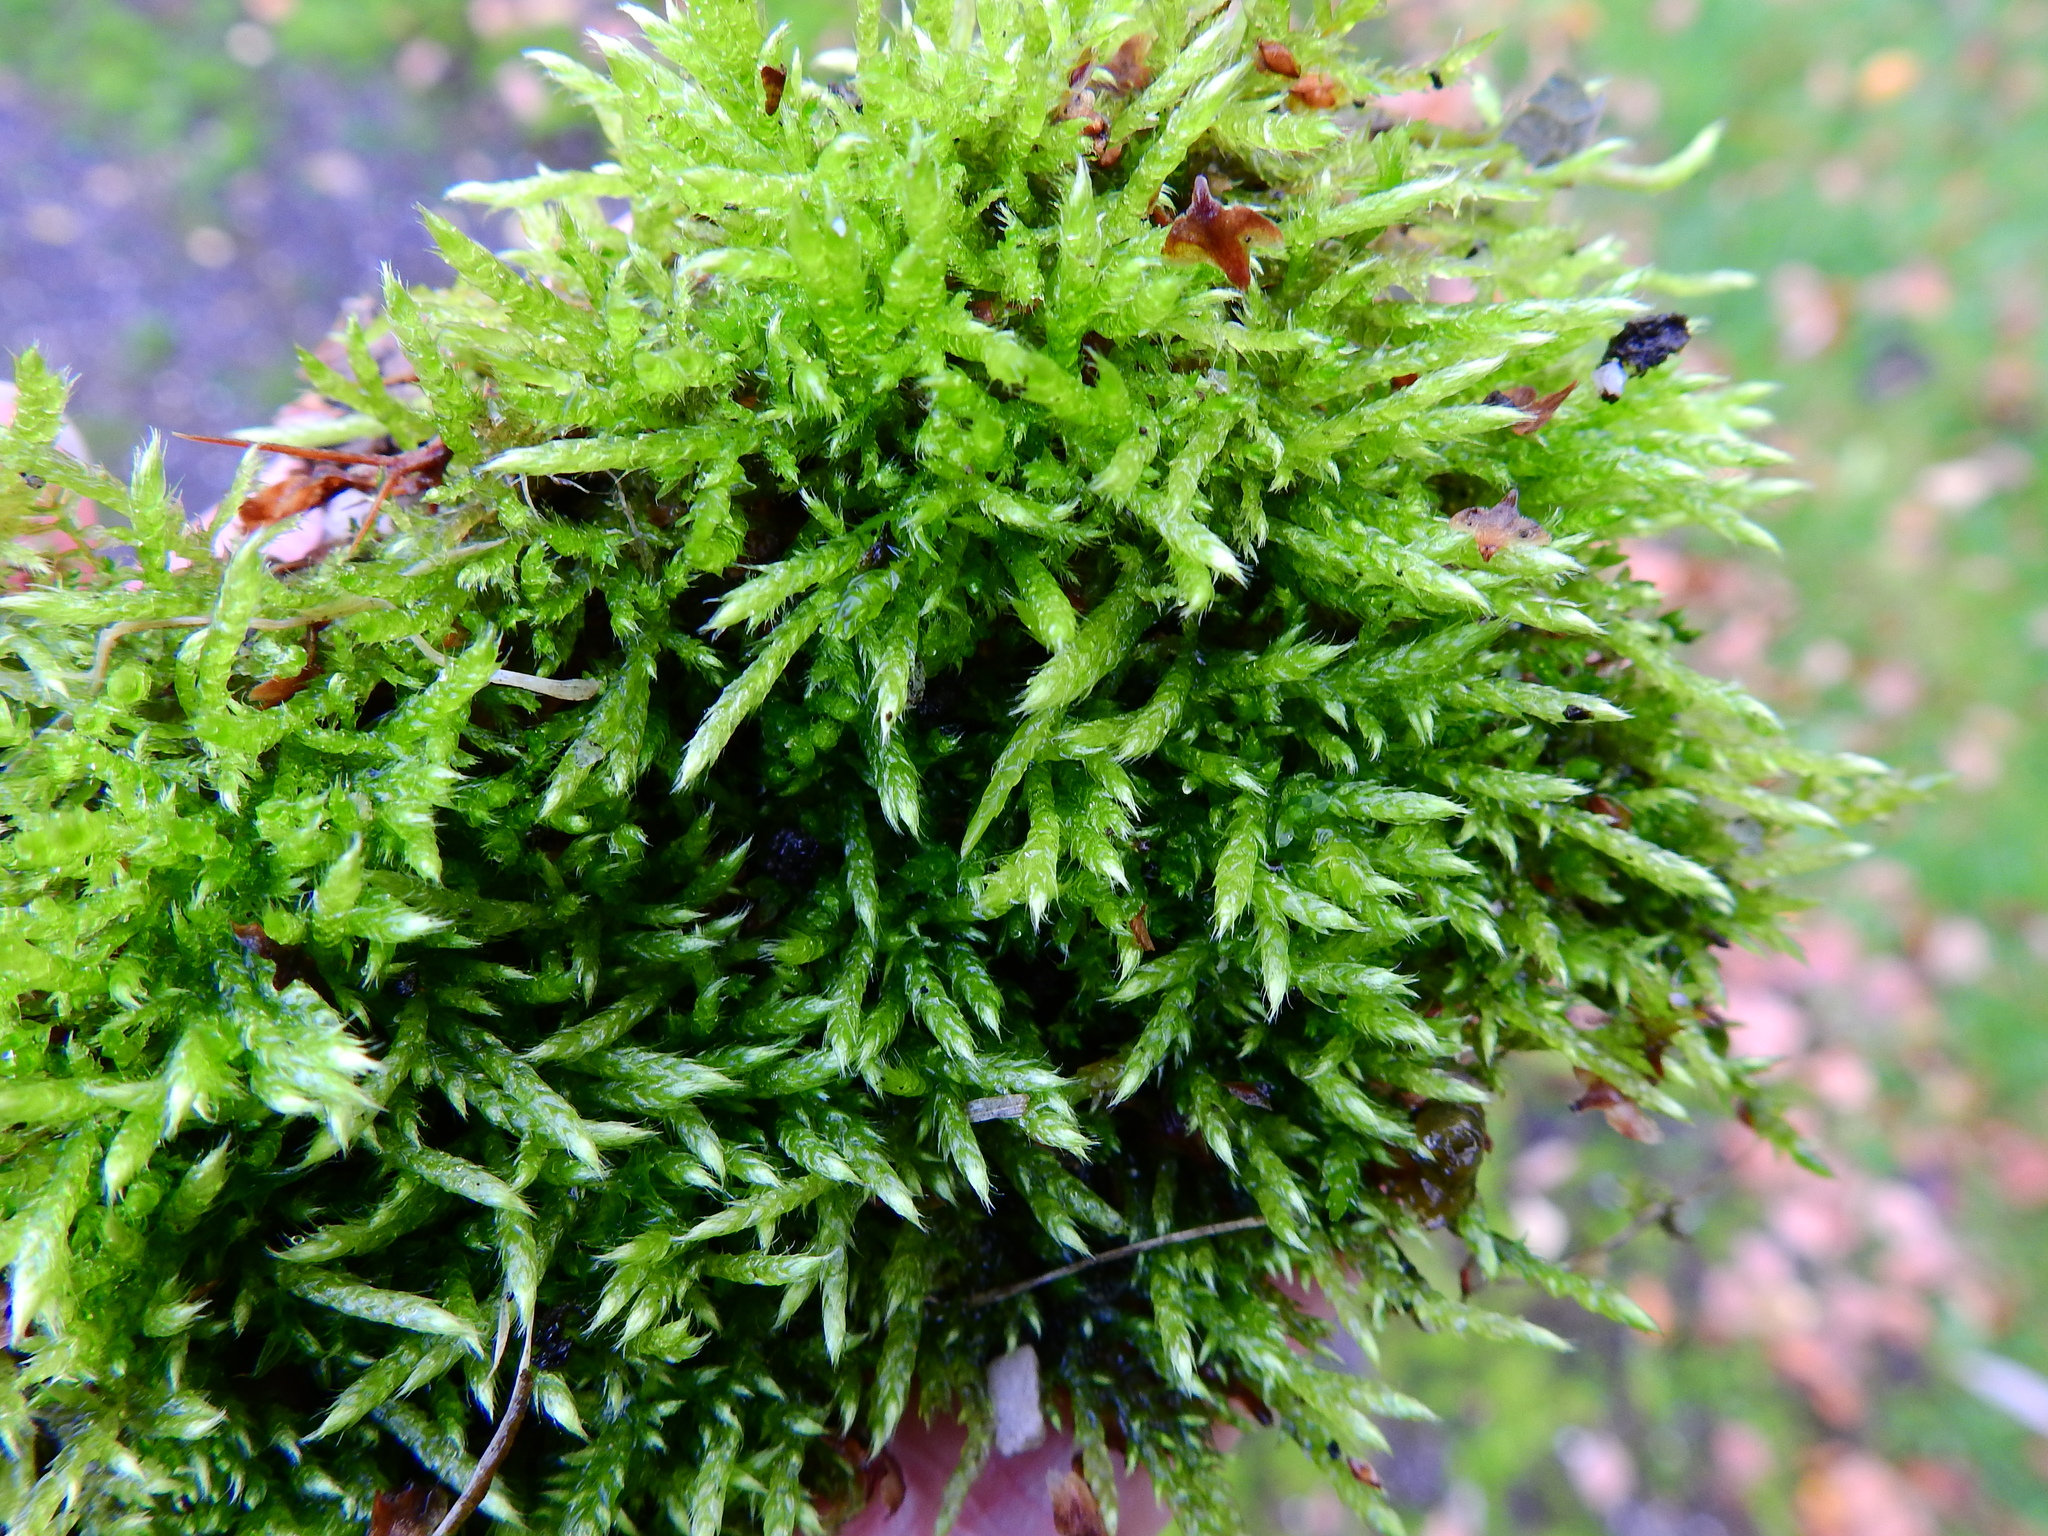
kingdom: Plantae
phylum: Bryophyta
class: Bryopsida
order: Hypnales
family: Brachytheciaceae
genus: Brachythecium
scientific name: Brachythecium rivulare
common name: River ragged moss
